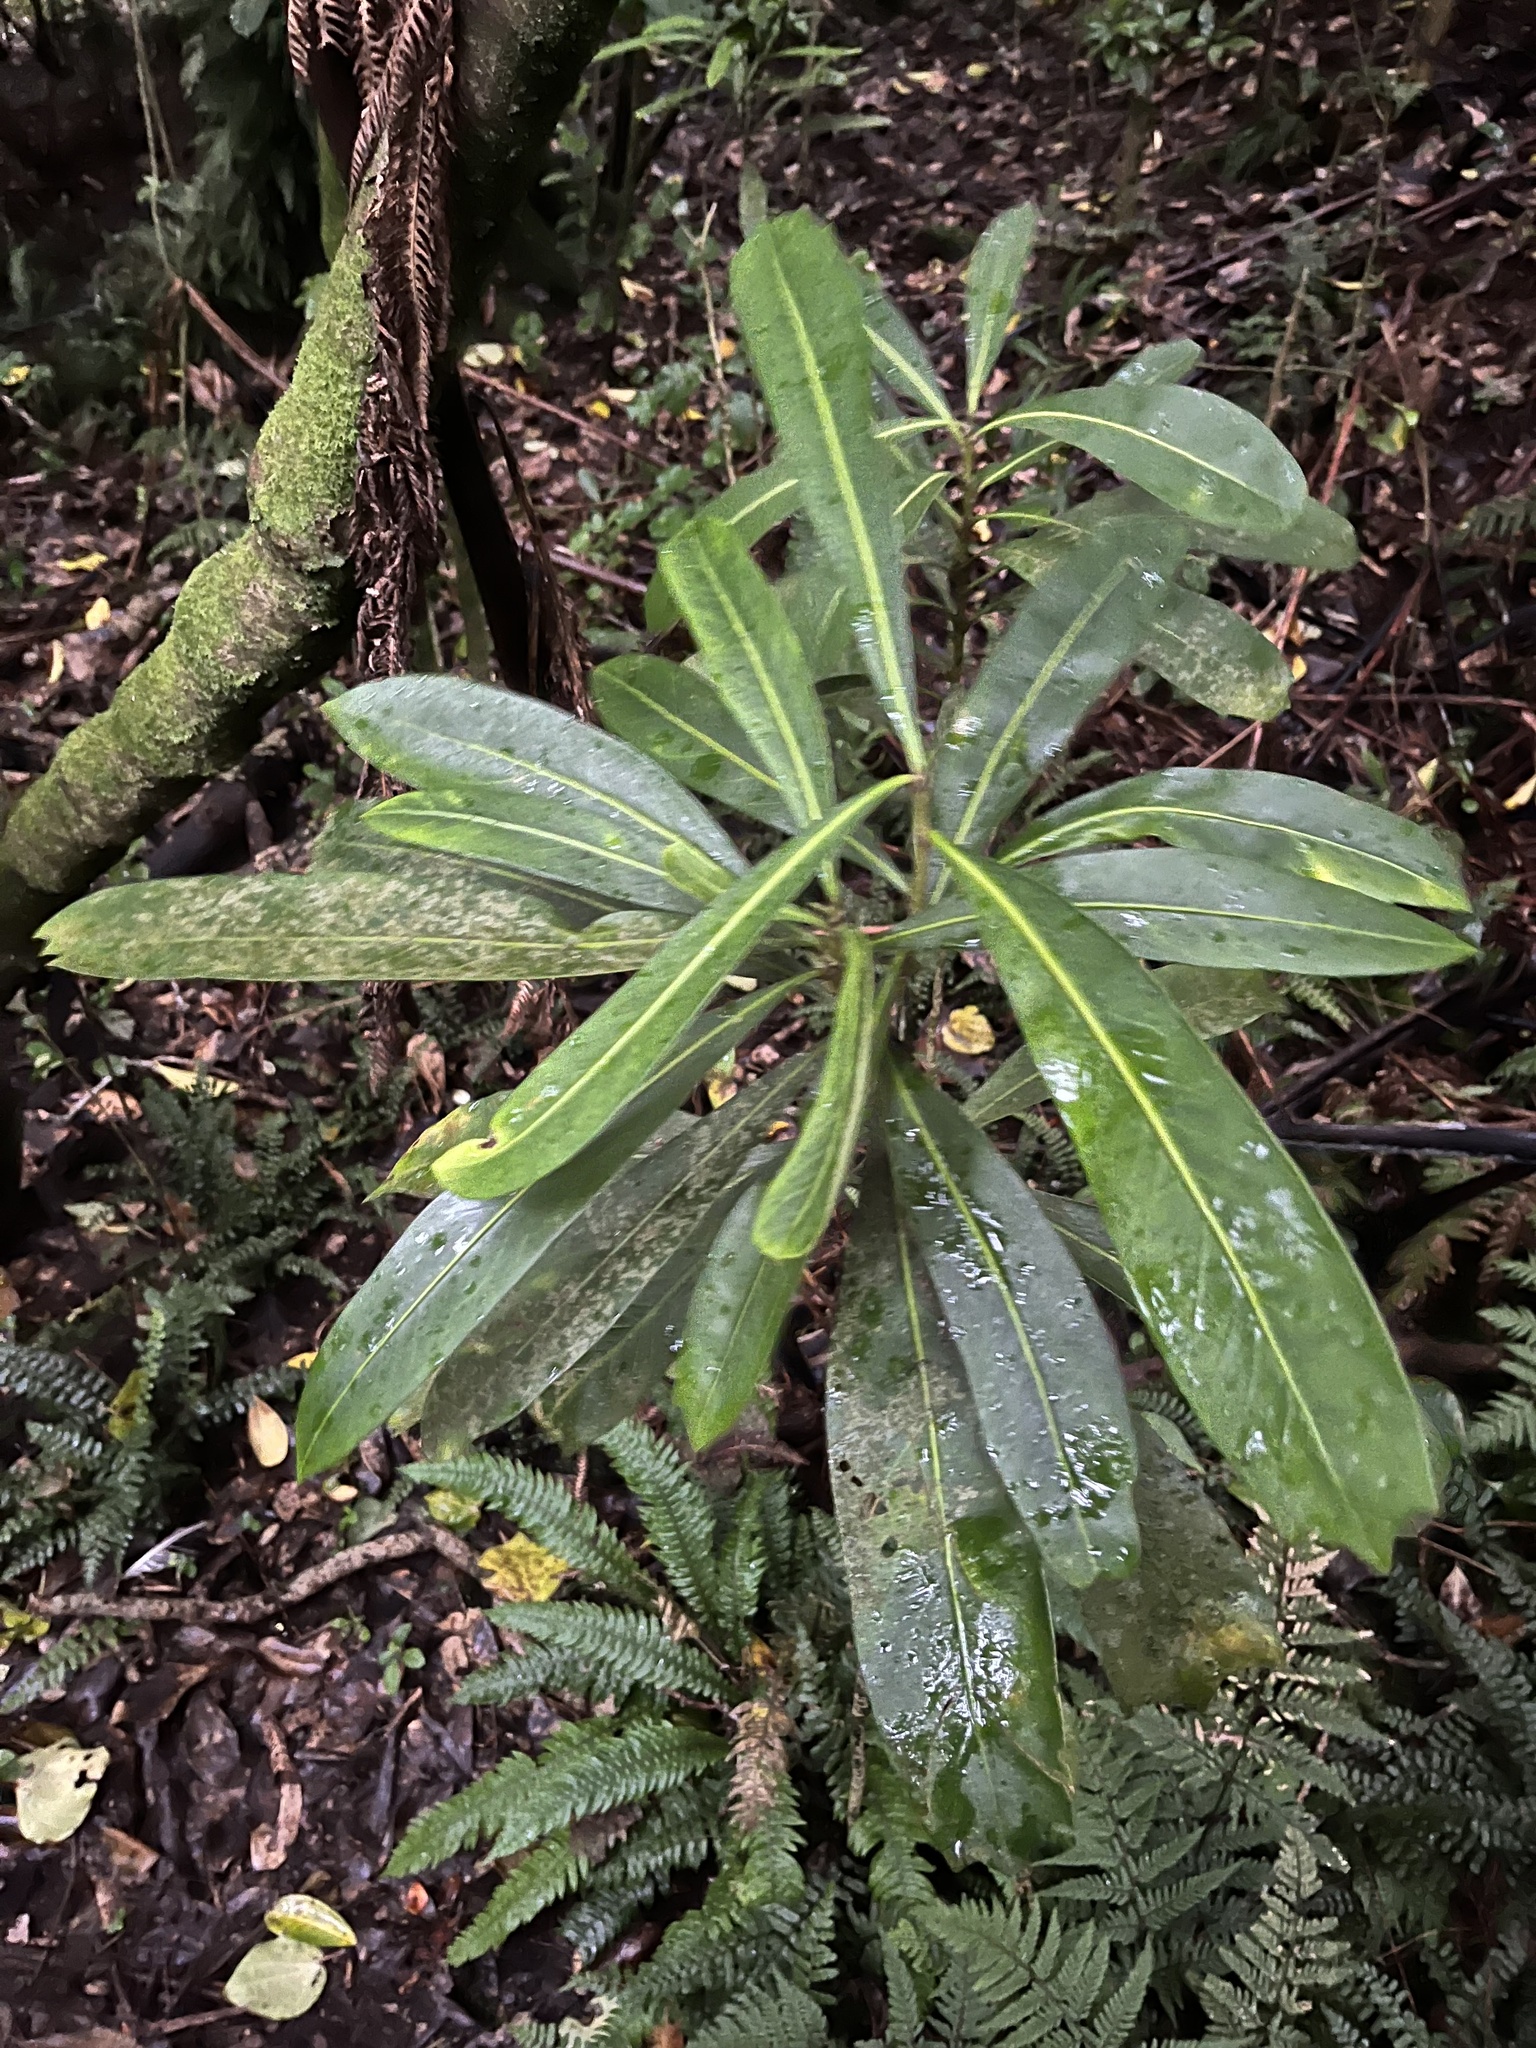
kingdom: Plantae
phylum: Tracheophyta
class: Magnoliopsida
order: Apiales
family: Araliaceae
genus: Pseudopanax
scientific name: Pseudopanax chathamicus
